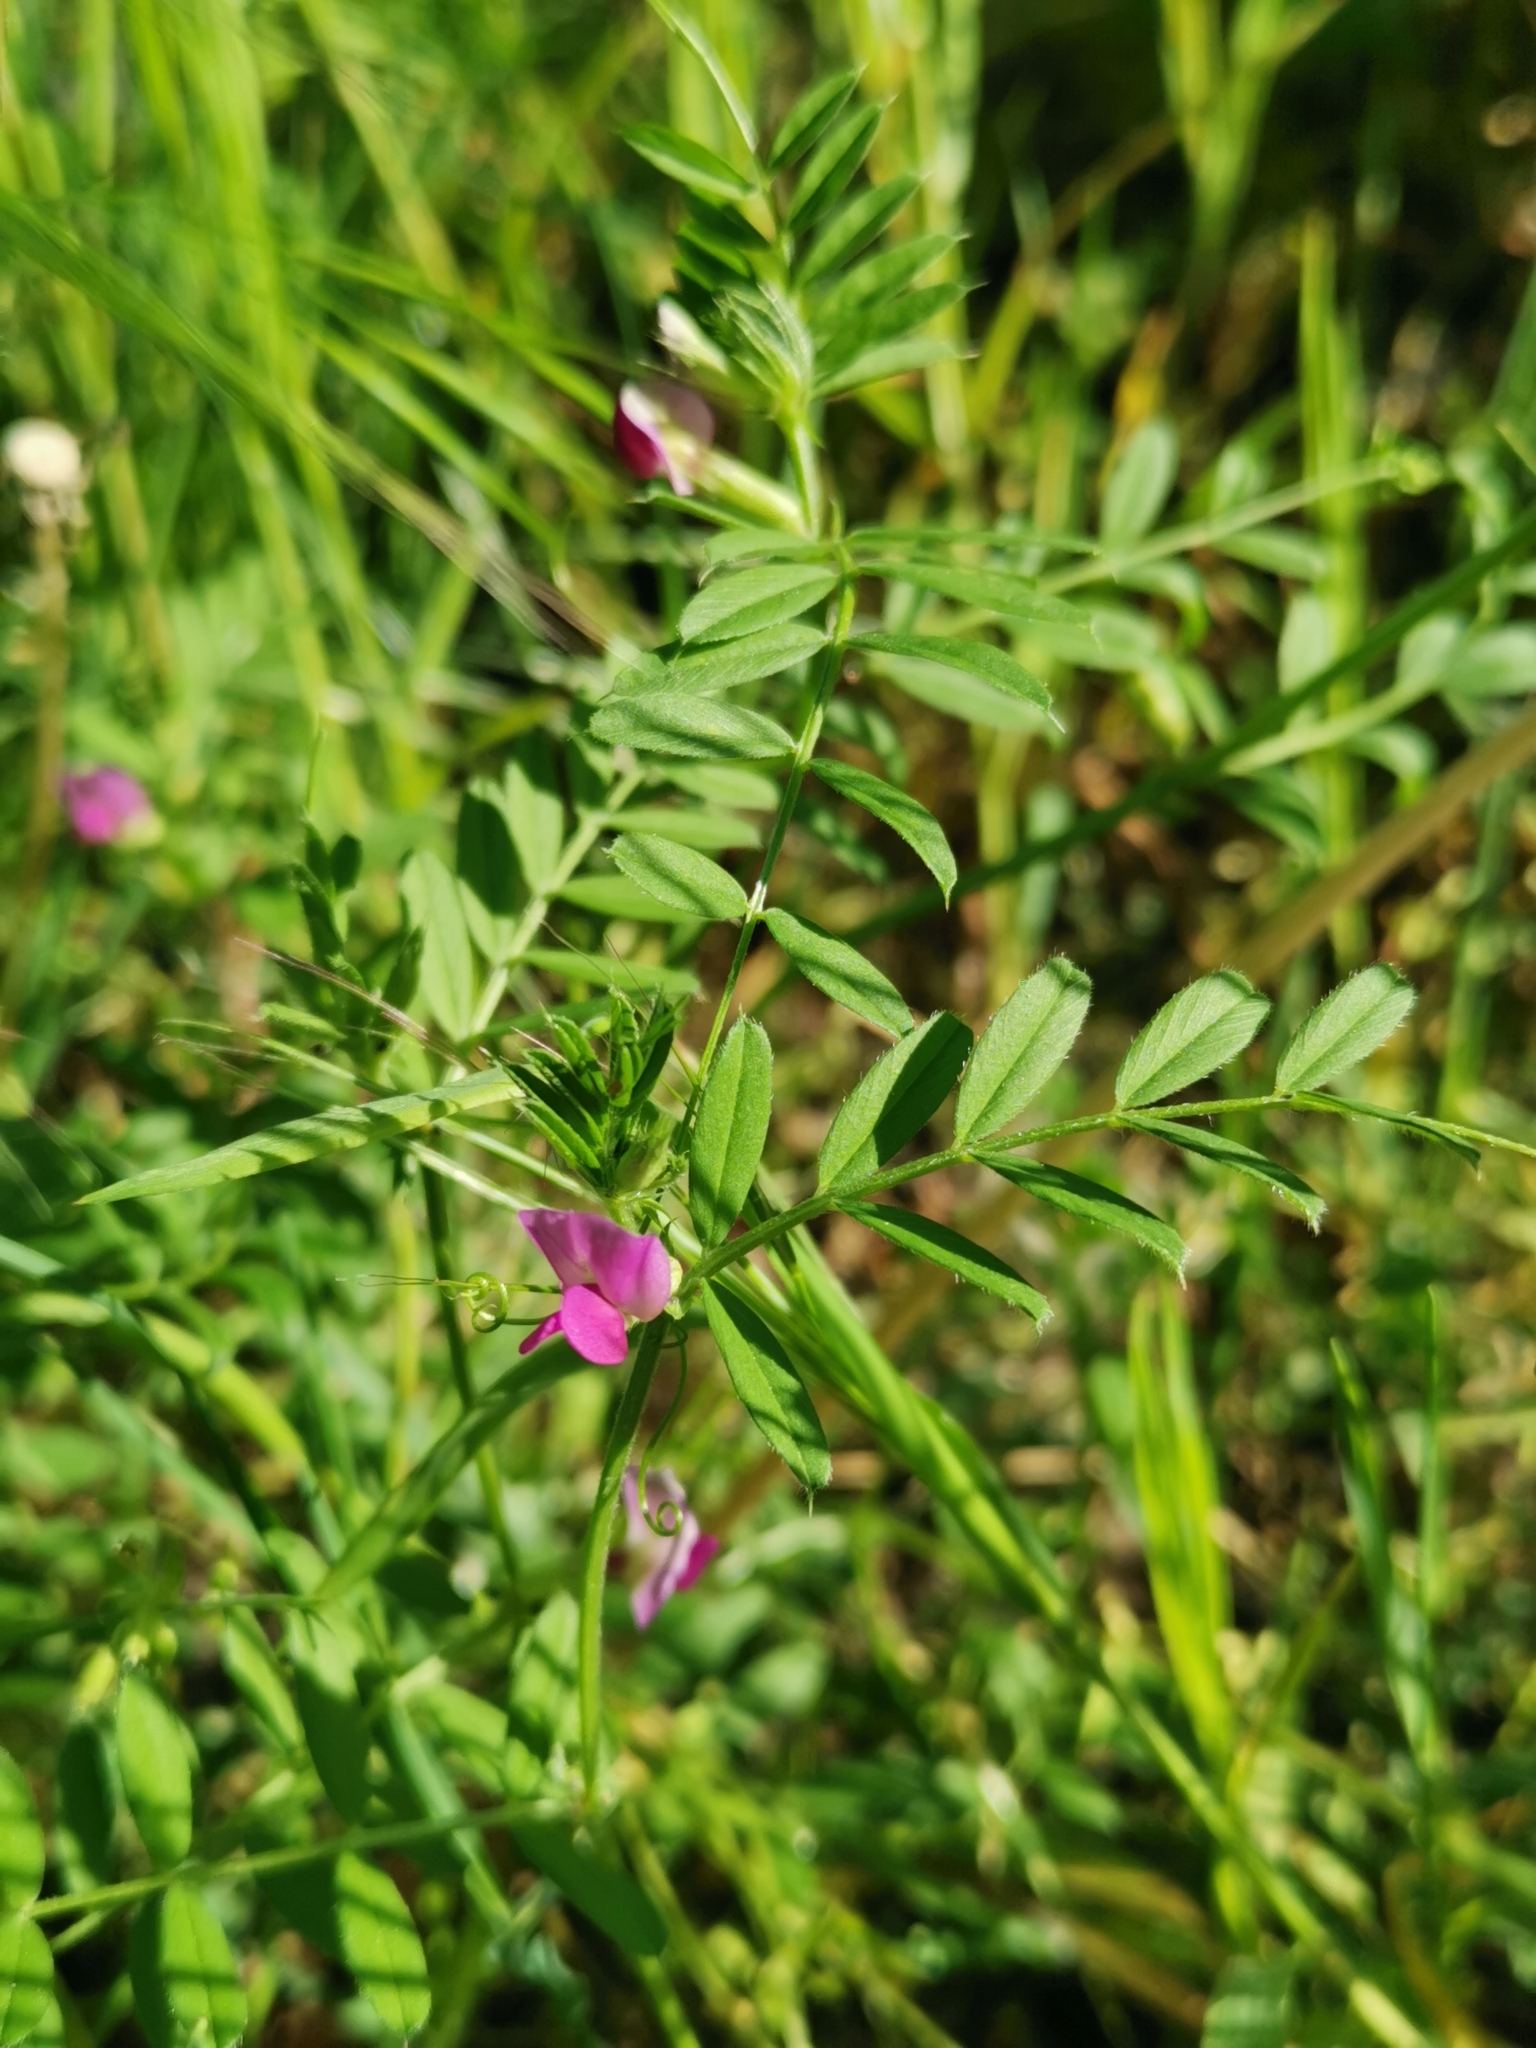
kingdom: Plantae
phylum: Tracheophyta
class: Magnoliopsida
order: Fabales
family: Fabaceae
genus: Vicia
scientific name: Vicia sativa
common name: Garden vetch
